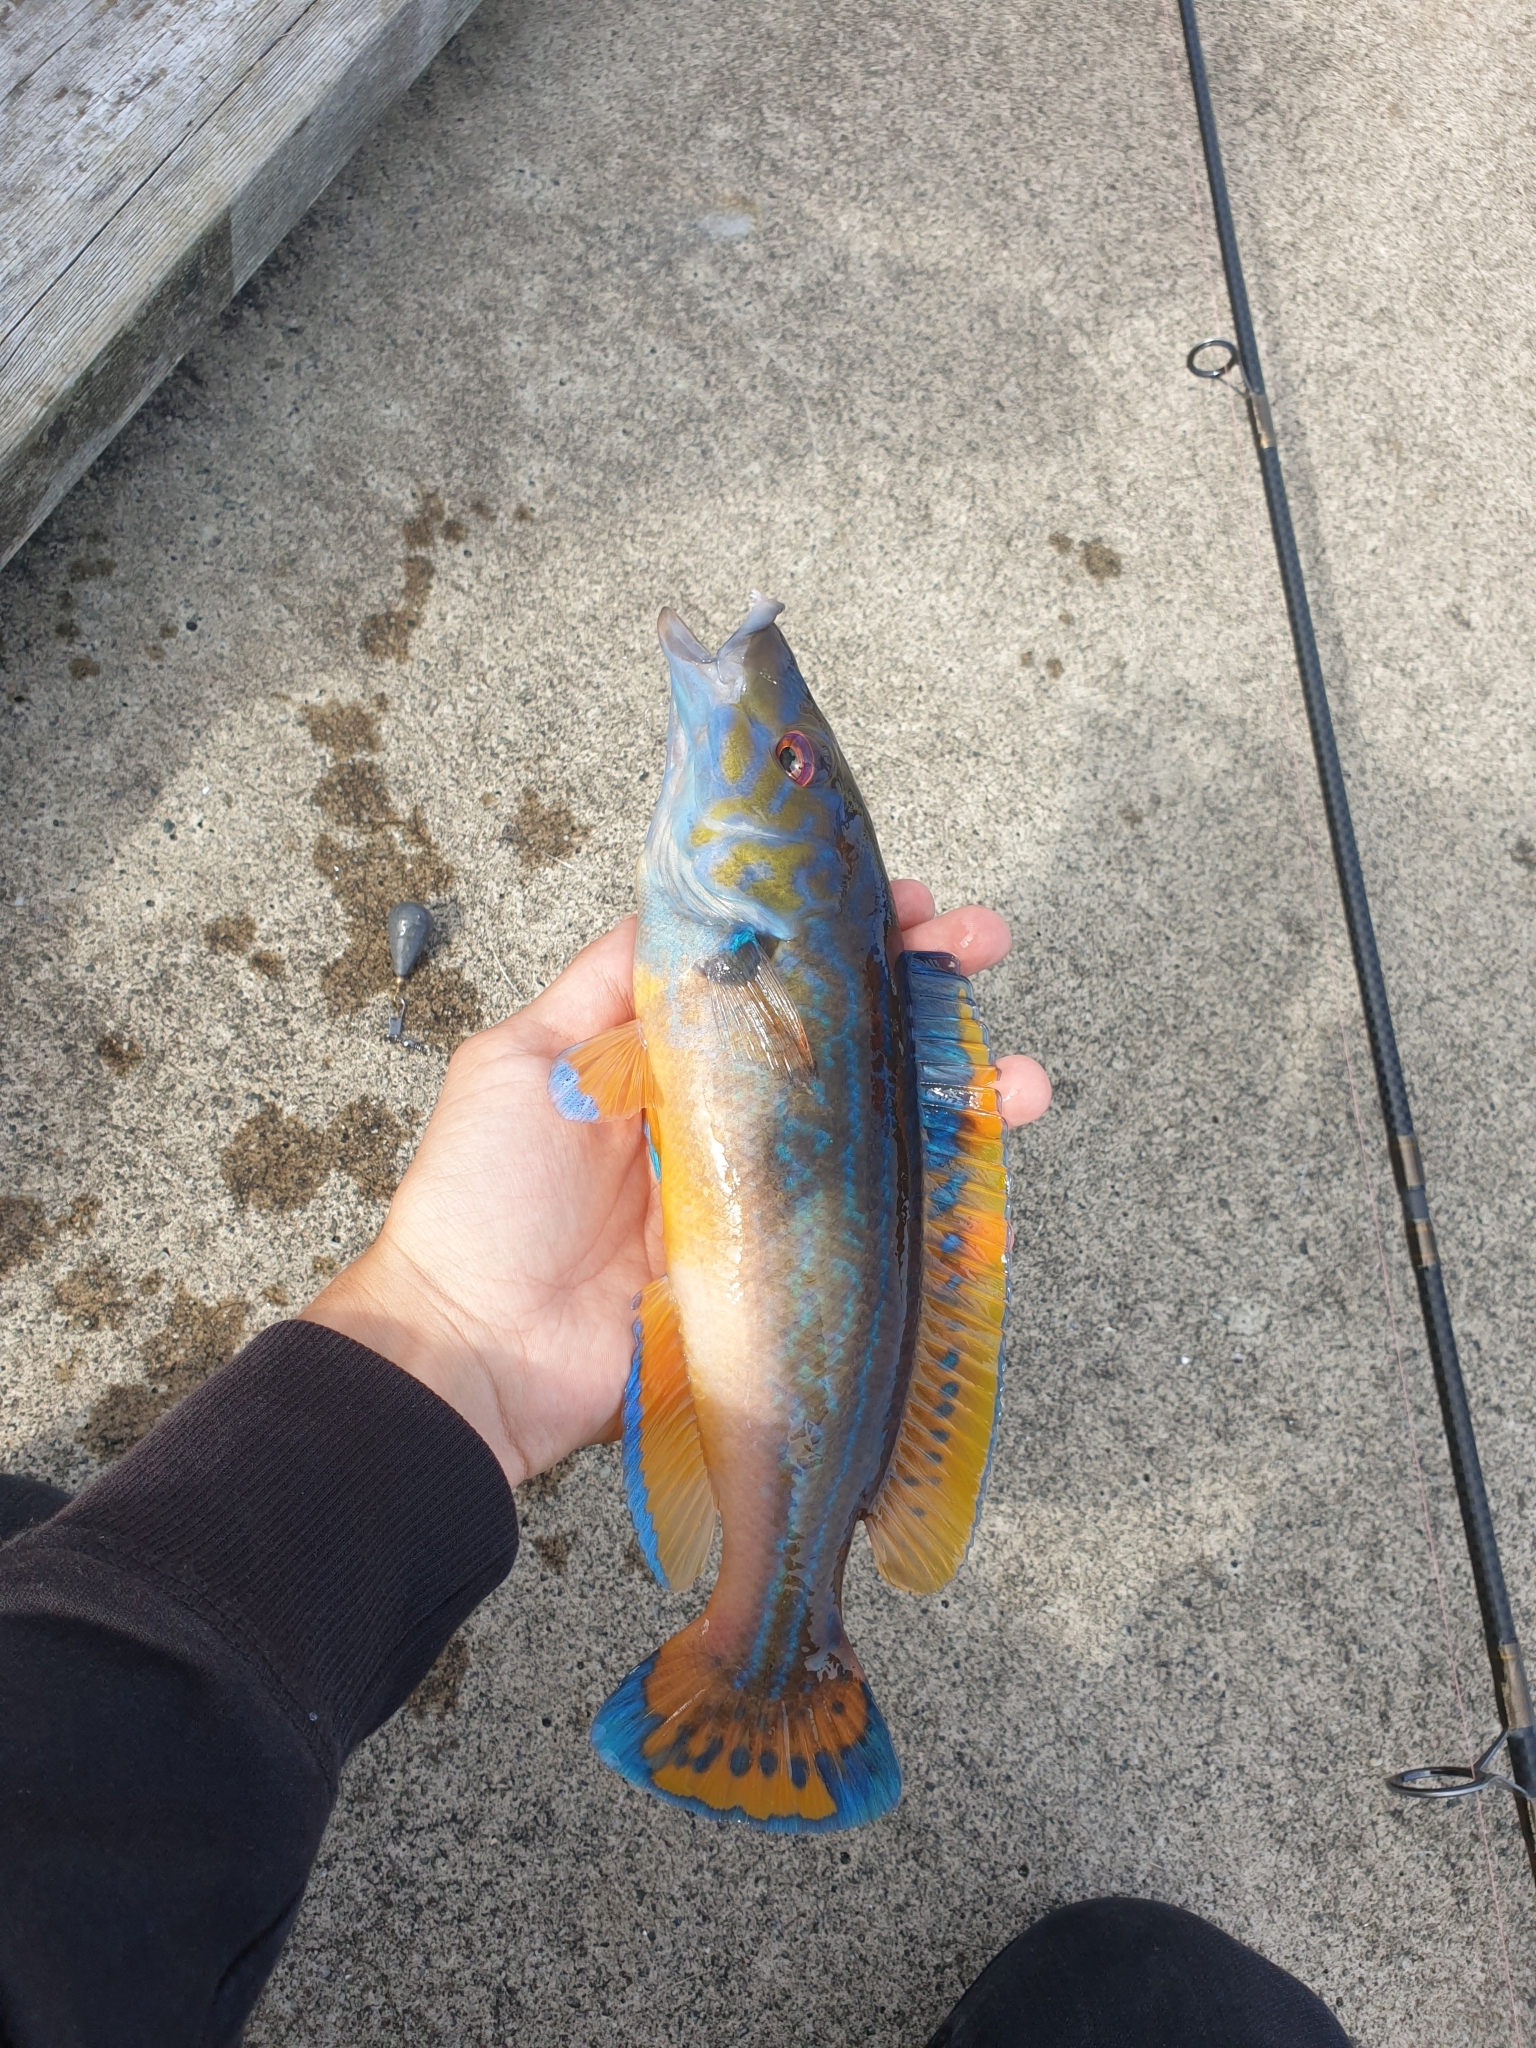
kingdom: Animalia
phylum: Chordata
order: Perciformes
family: Labridae
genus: Labrus
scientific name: Labrus mixtus
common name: Cuckoo wrasse
